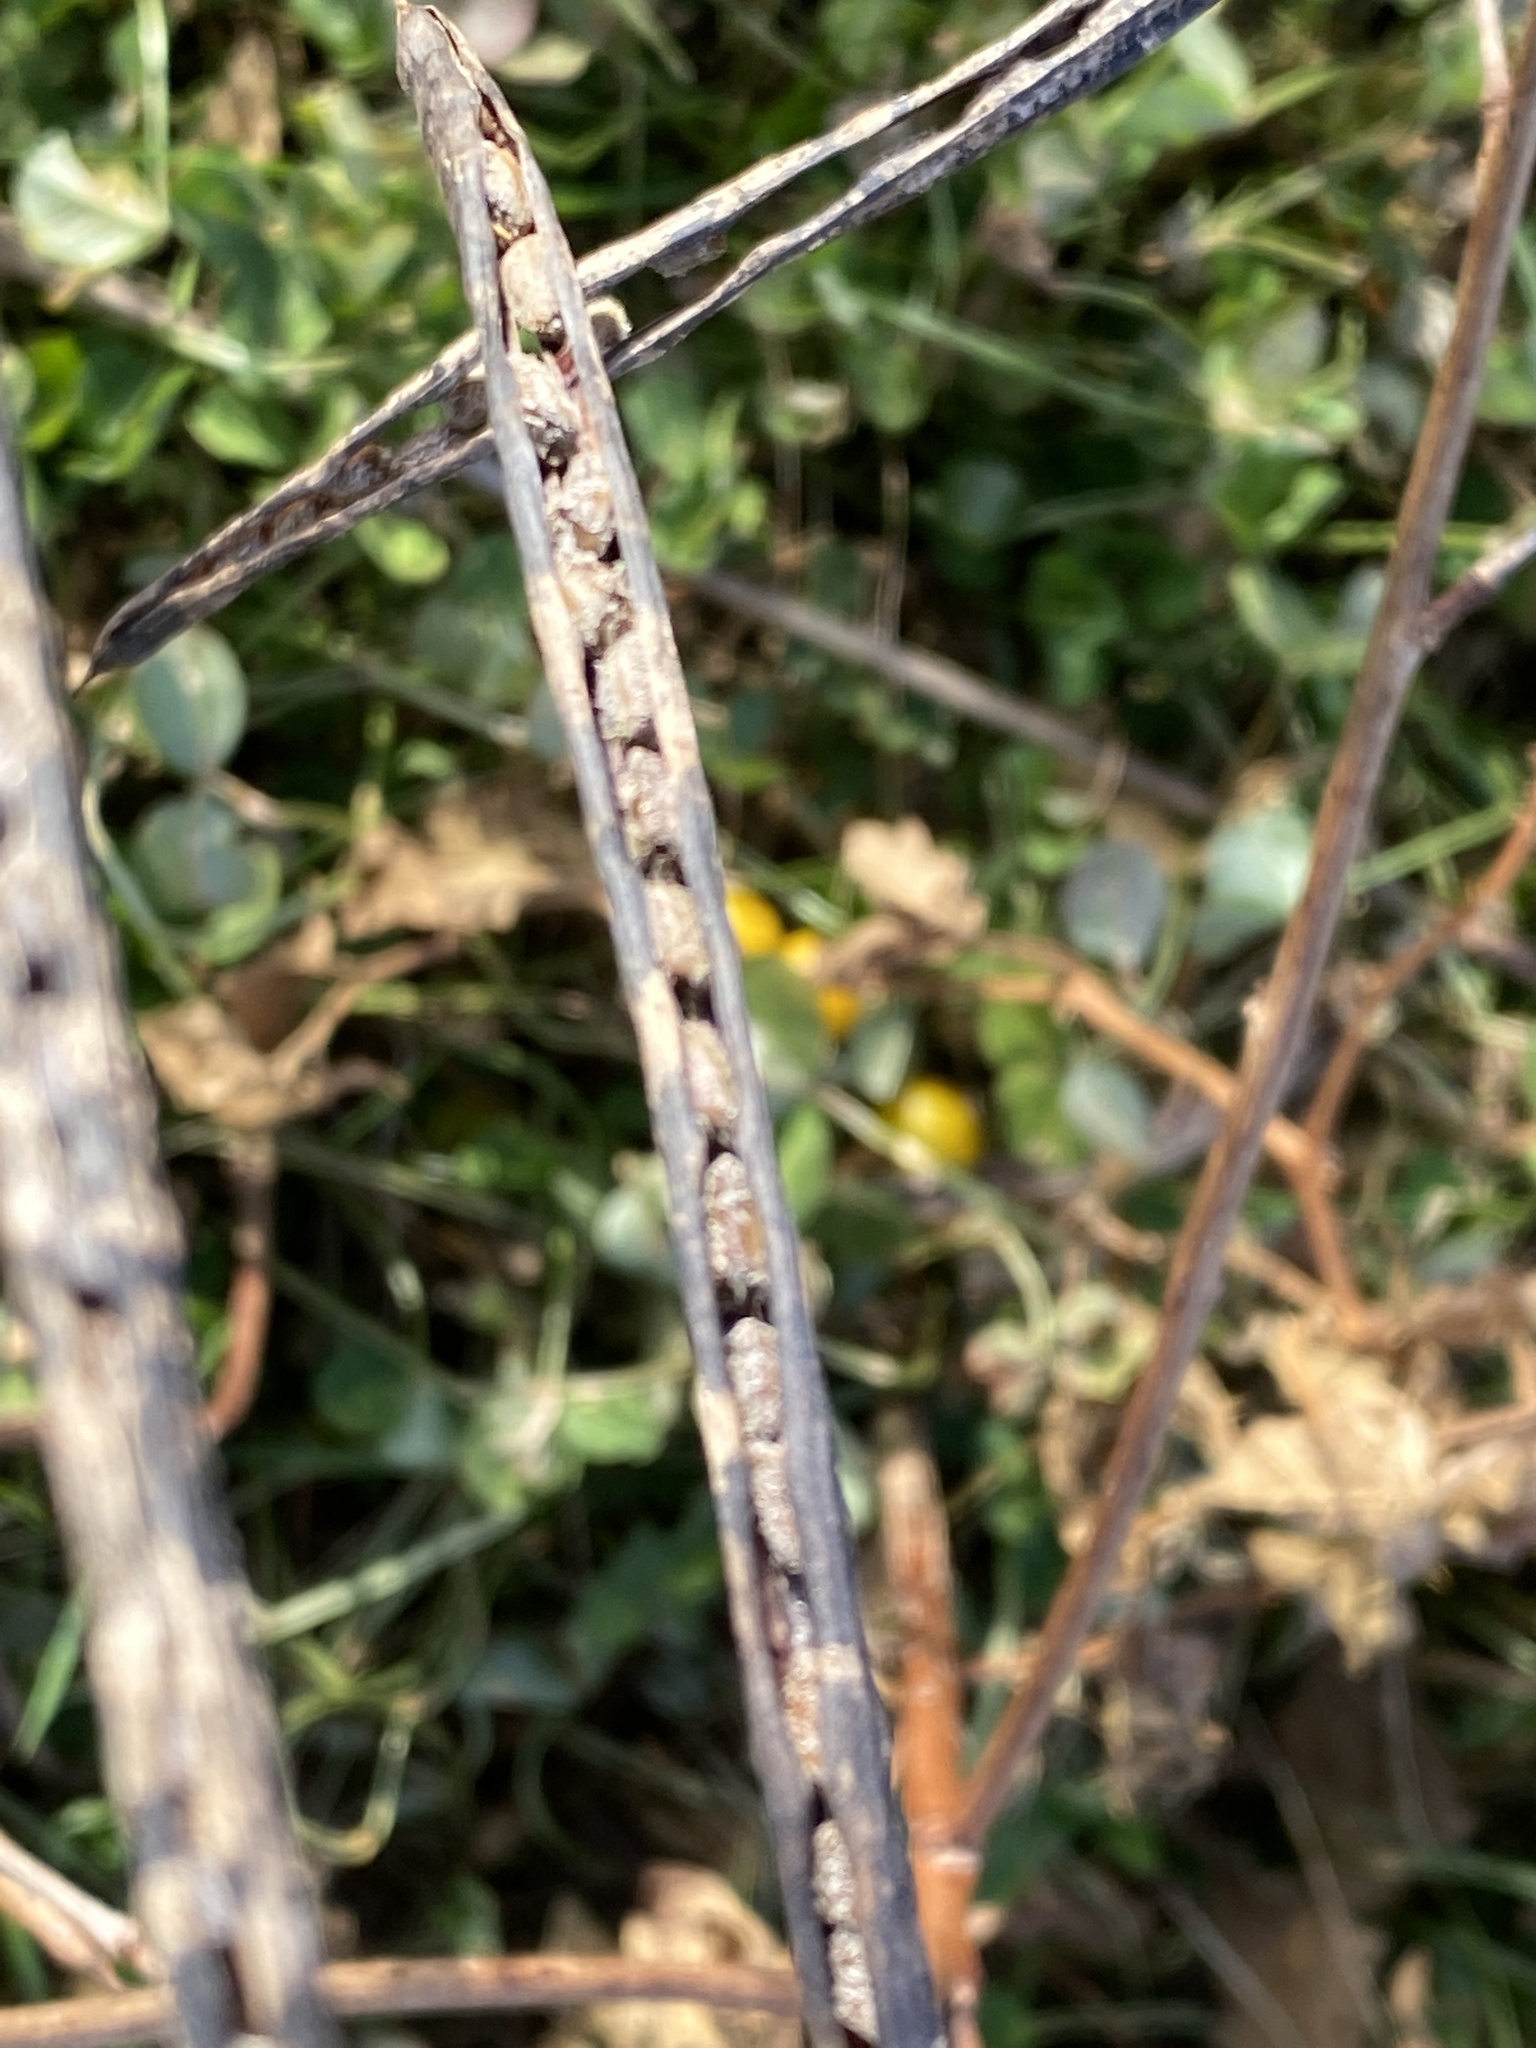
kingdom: Plantae
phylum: Tracheophyta
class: Magnoliopsida
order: Fabales
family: Fabaceae
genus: Senna
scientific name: Senna obtusifolia
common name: Java-bean
